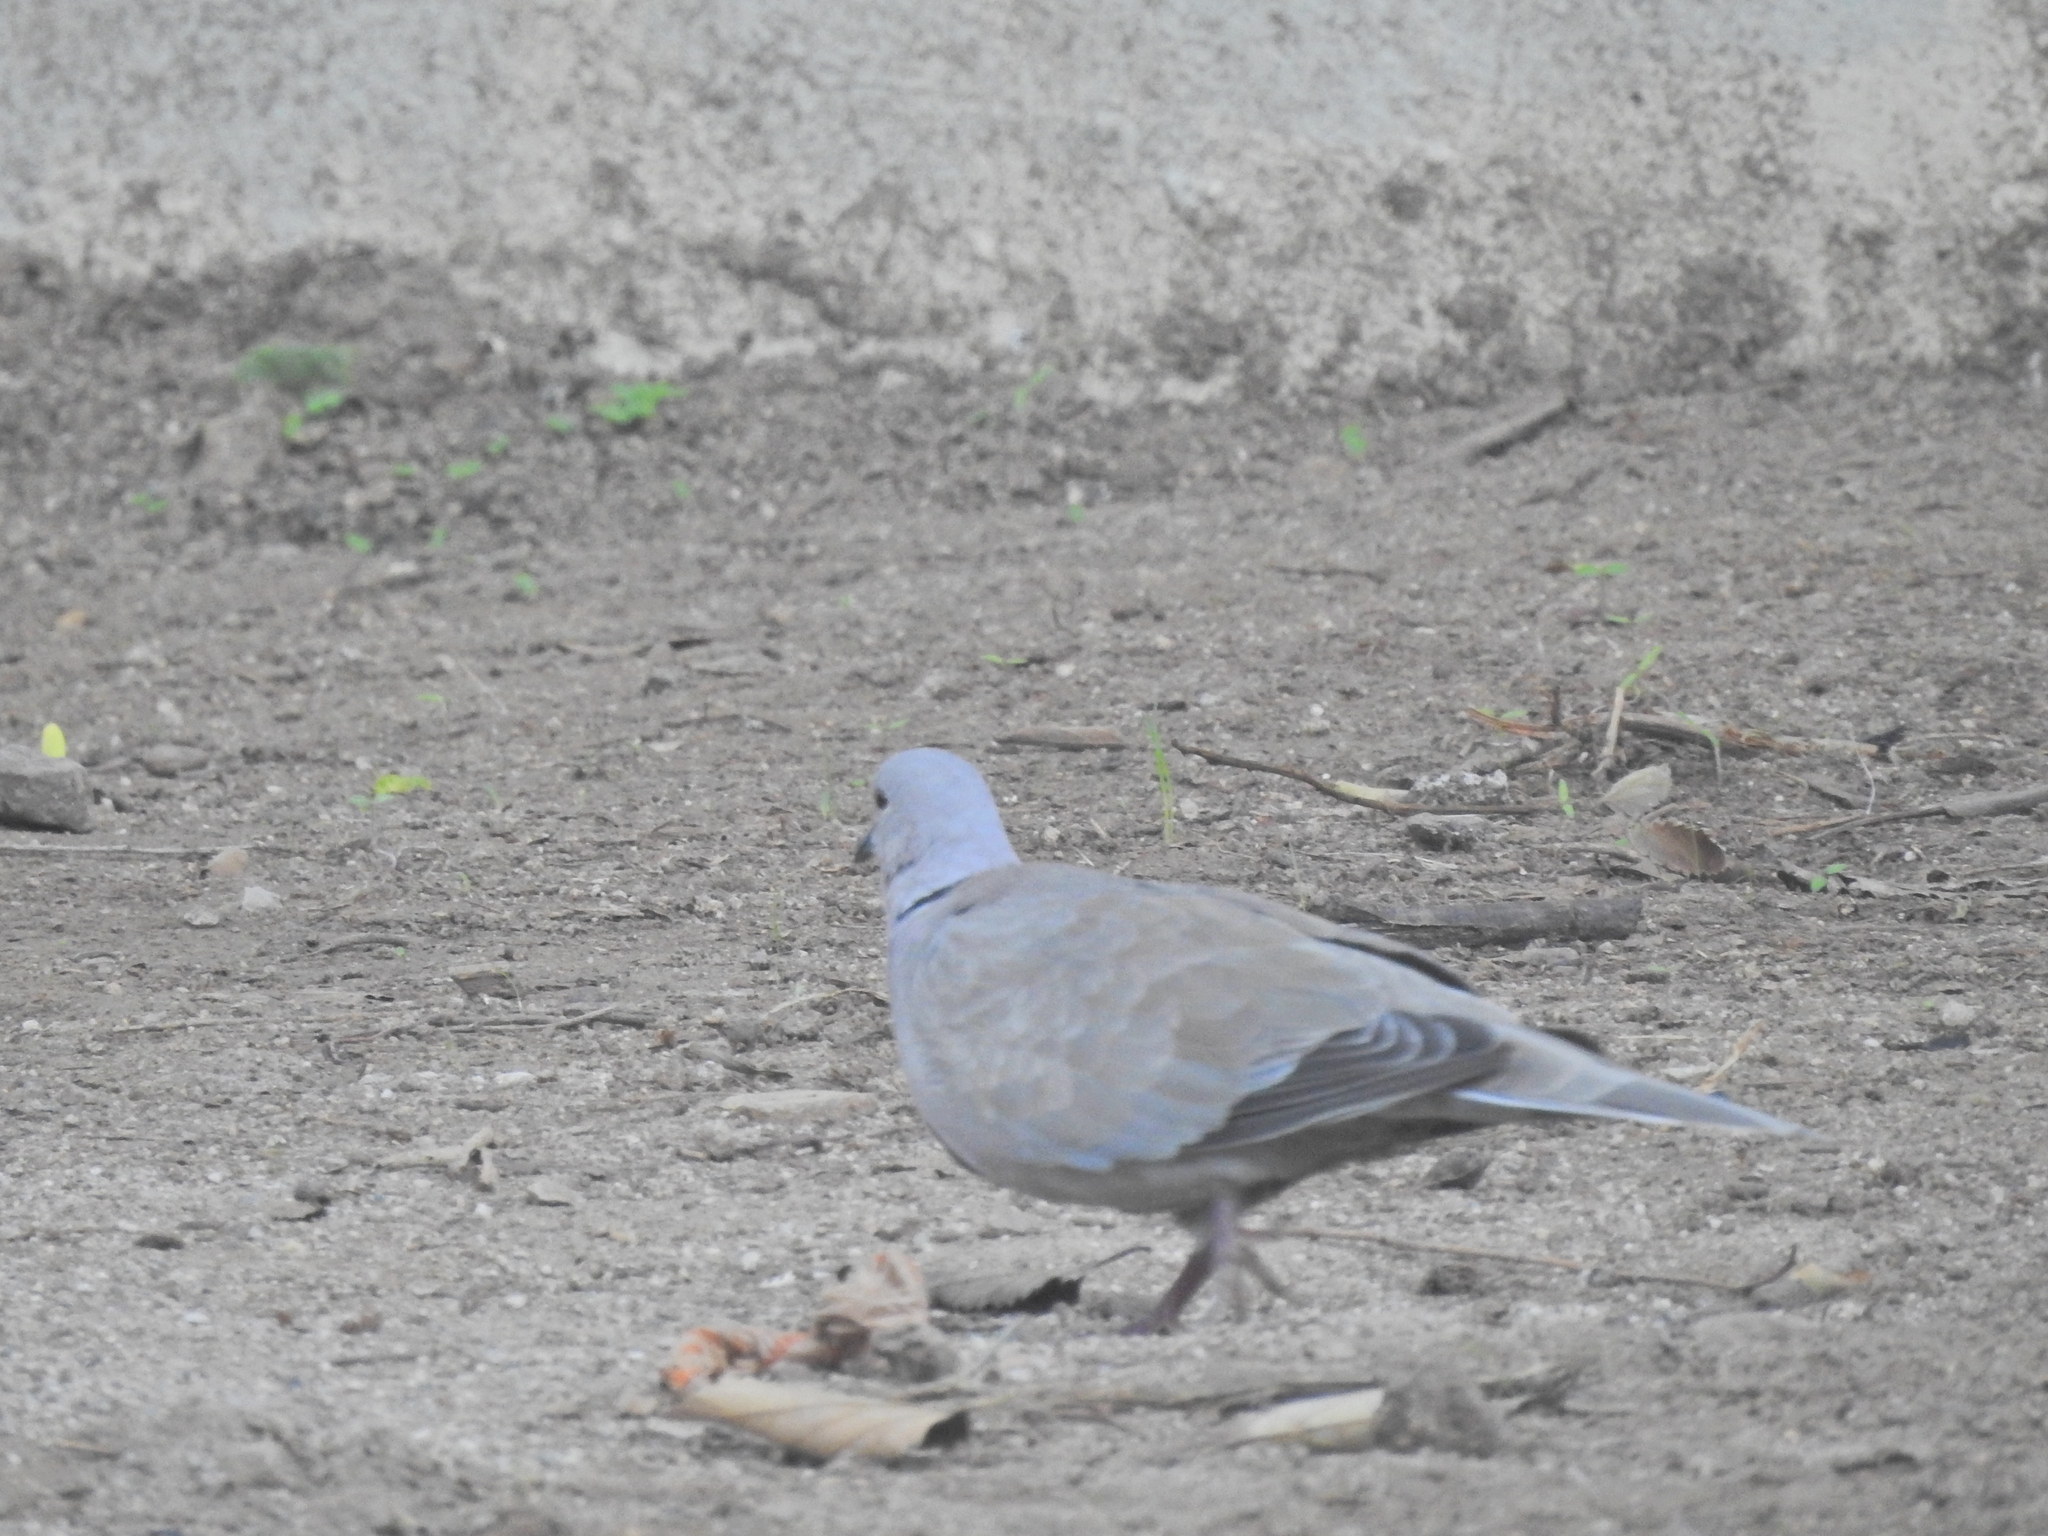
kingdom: Animalia
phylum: Chordata
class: Aves
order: Columbiformes
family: Columbidae
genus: Streptopelia
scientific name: Streptopelia decaocto
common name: Eurasian collared dove
